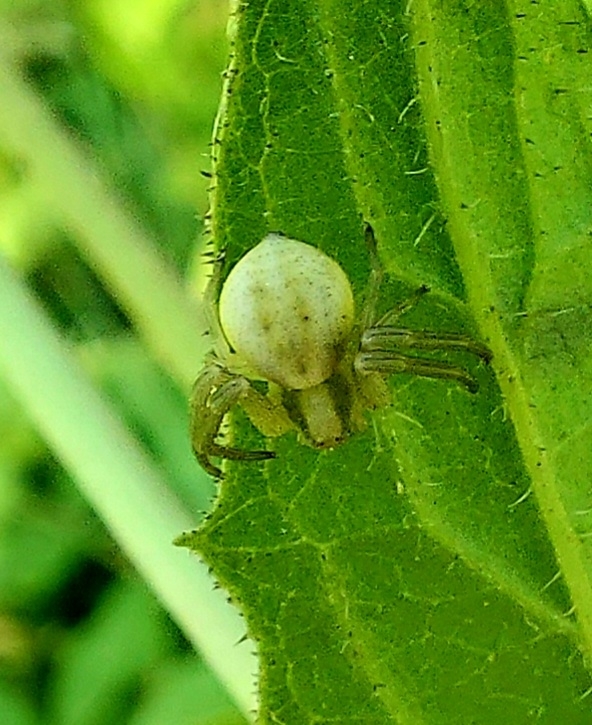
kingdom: Animalia
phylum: Arthropoda
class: Arachnida
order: Araneae
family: Thomisidae
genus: Misumena
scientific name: Misumena vatia
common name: Goldenrod crab spider
